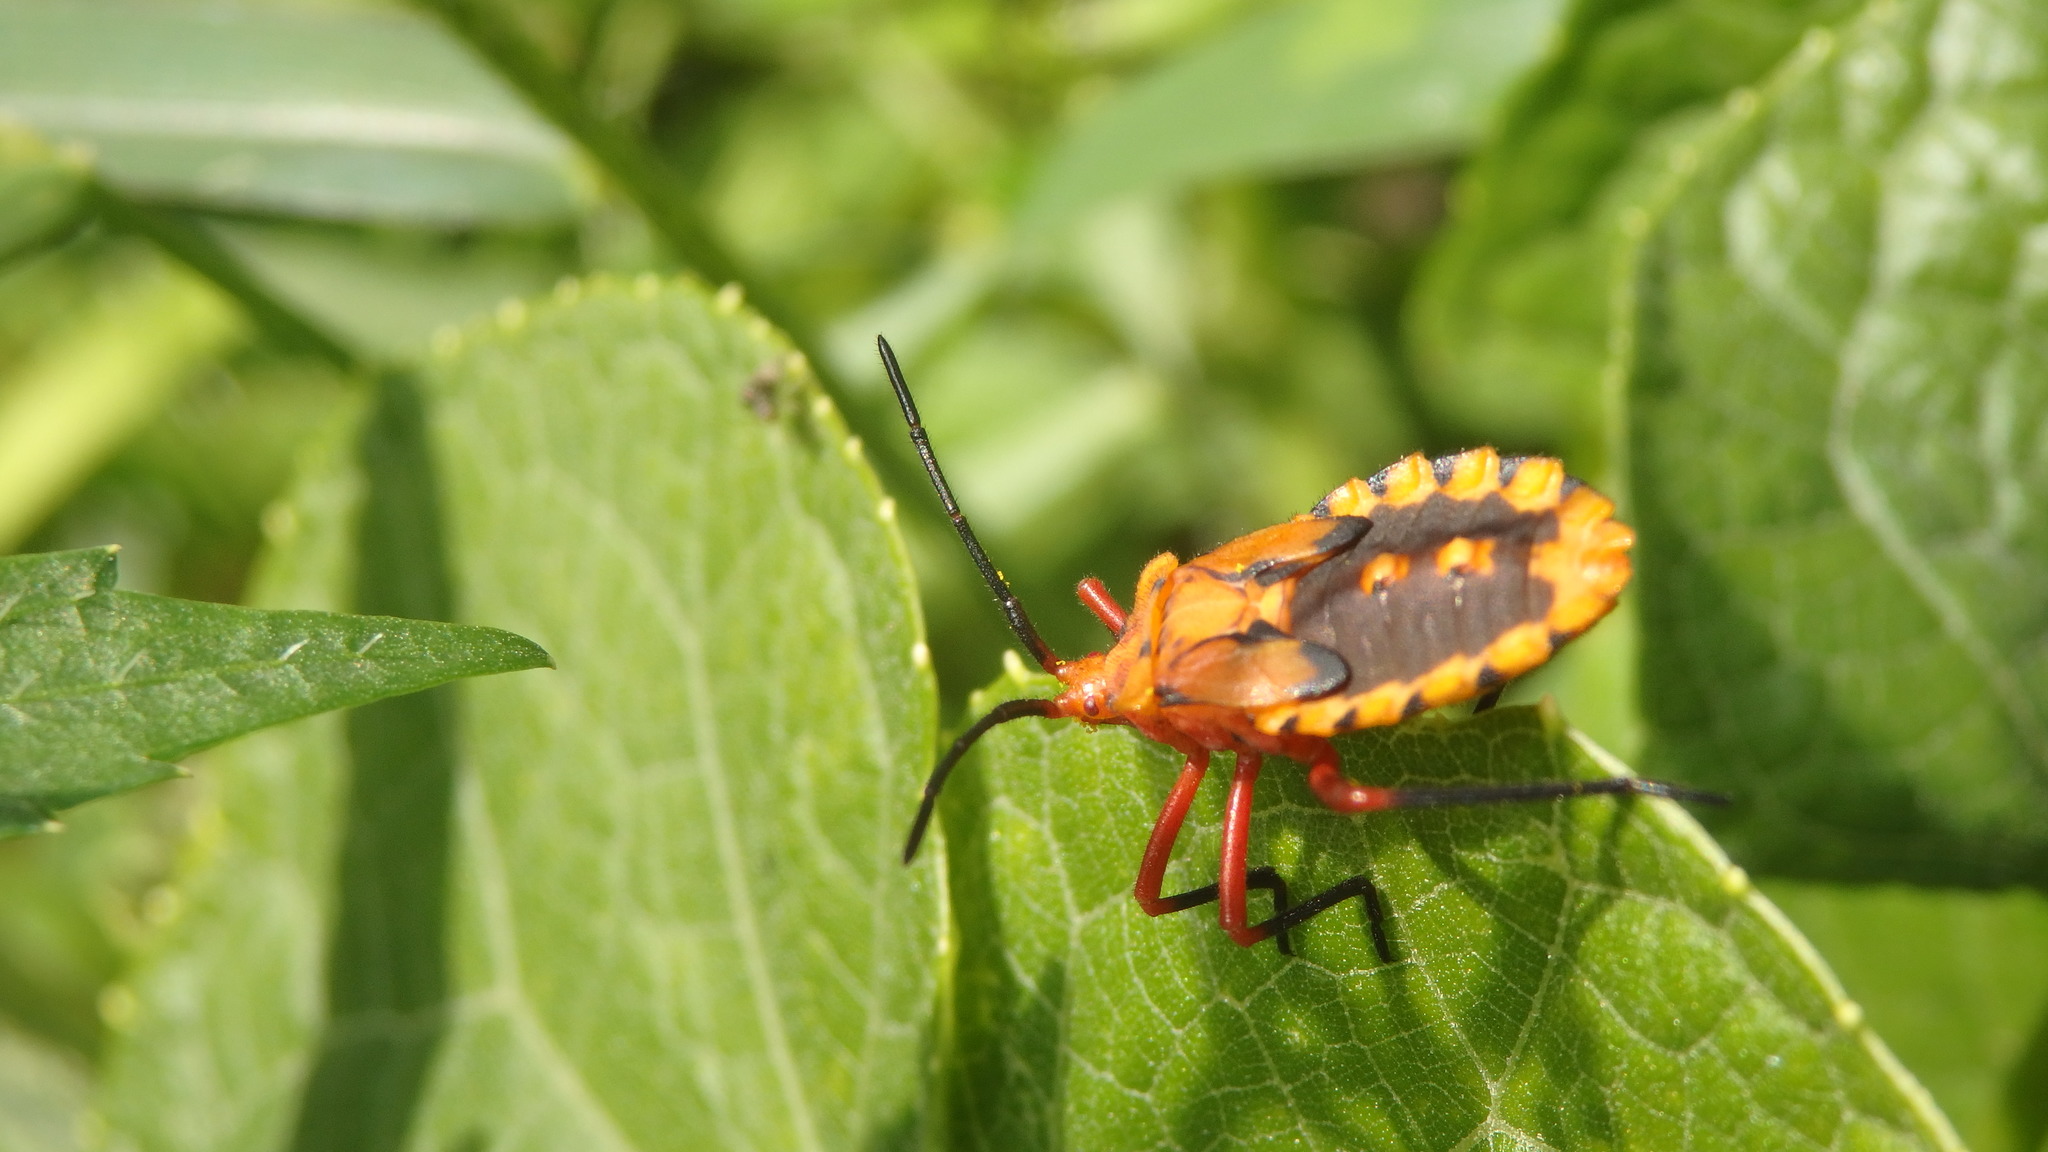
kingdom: Animalia
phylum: Arthropoda
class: Insecta
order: Hemiptera
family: Coreidae
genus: Spartocera
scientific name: Spartocera fusca
